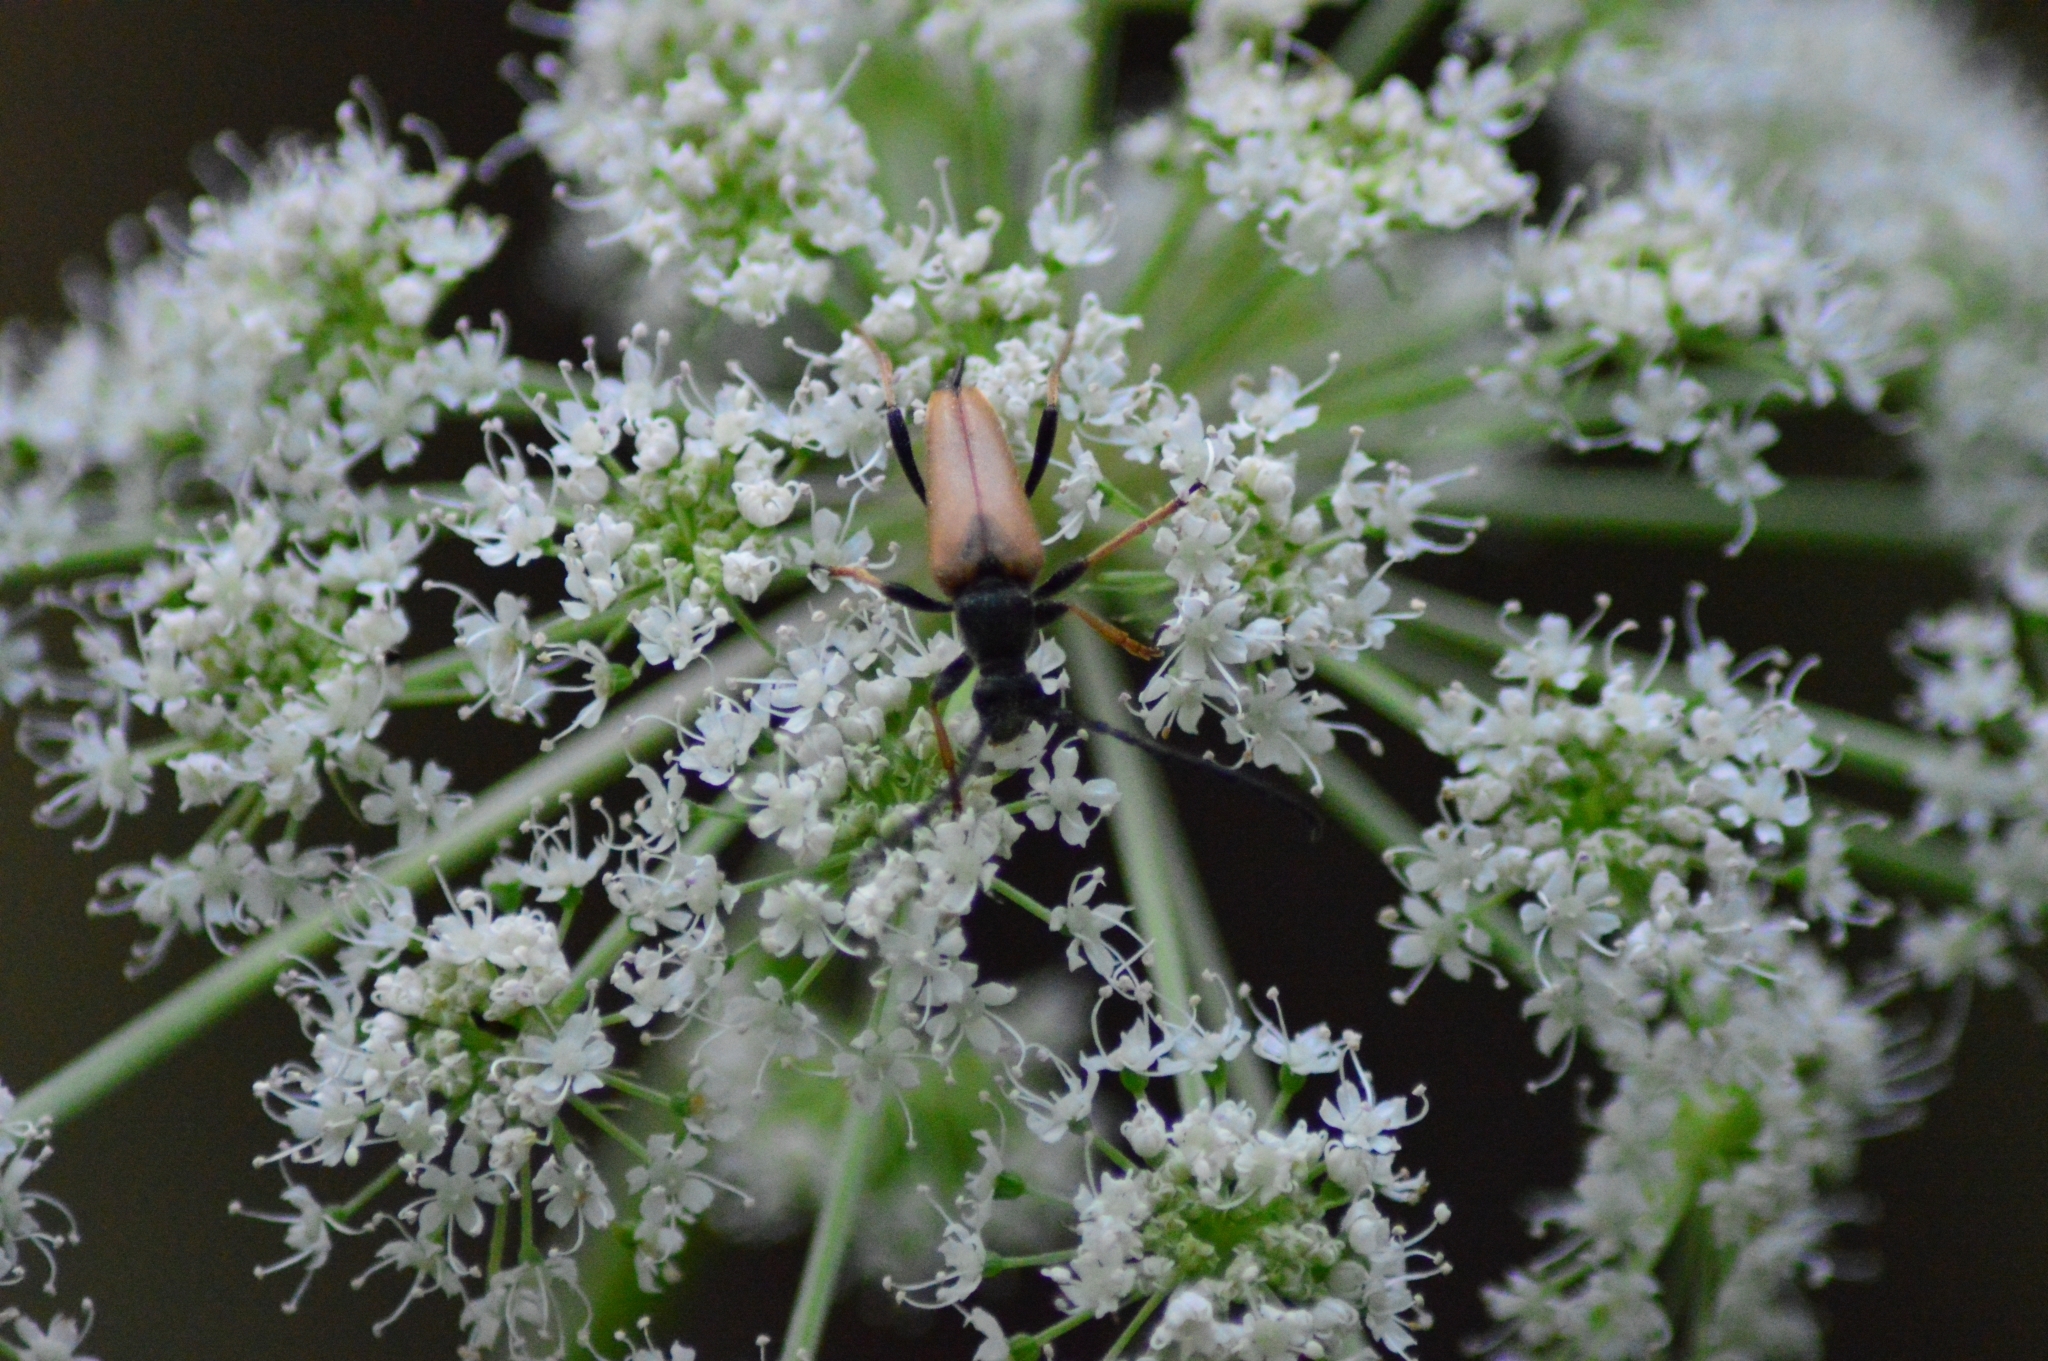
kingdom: Animalia
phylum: Arthropoda
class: Insecta
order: Coleoptera
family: Cerambycidae
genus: Stictoleptura
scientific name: Stictoleptura rubra
